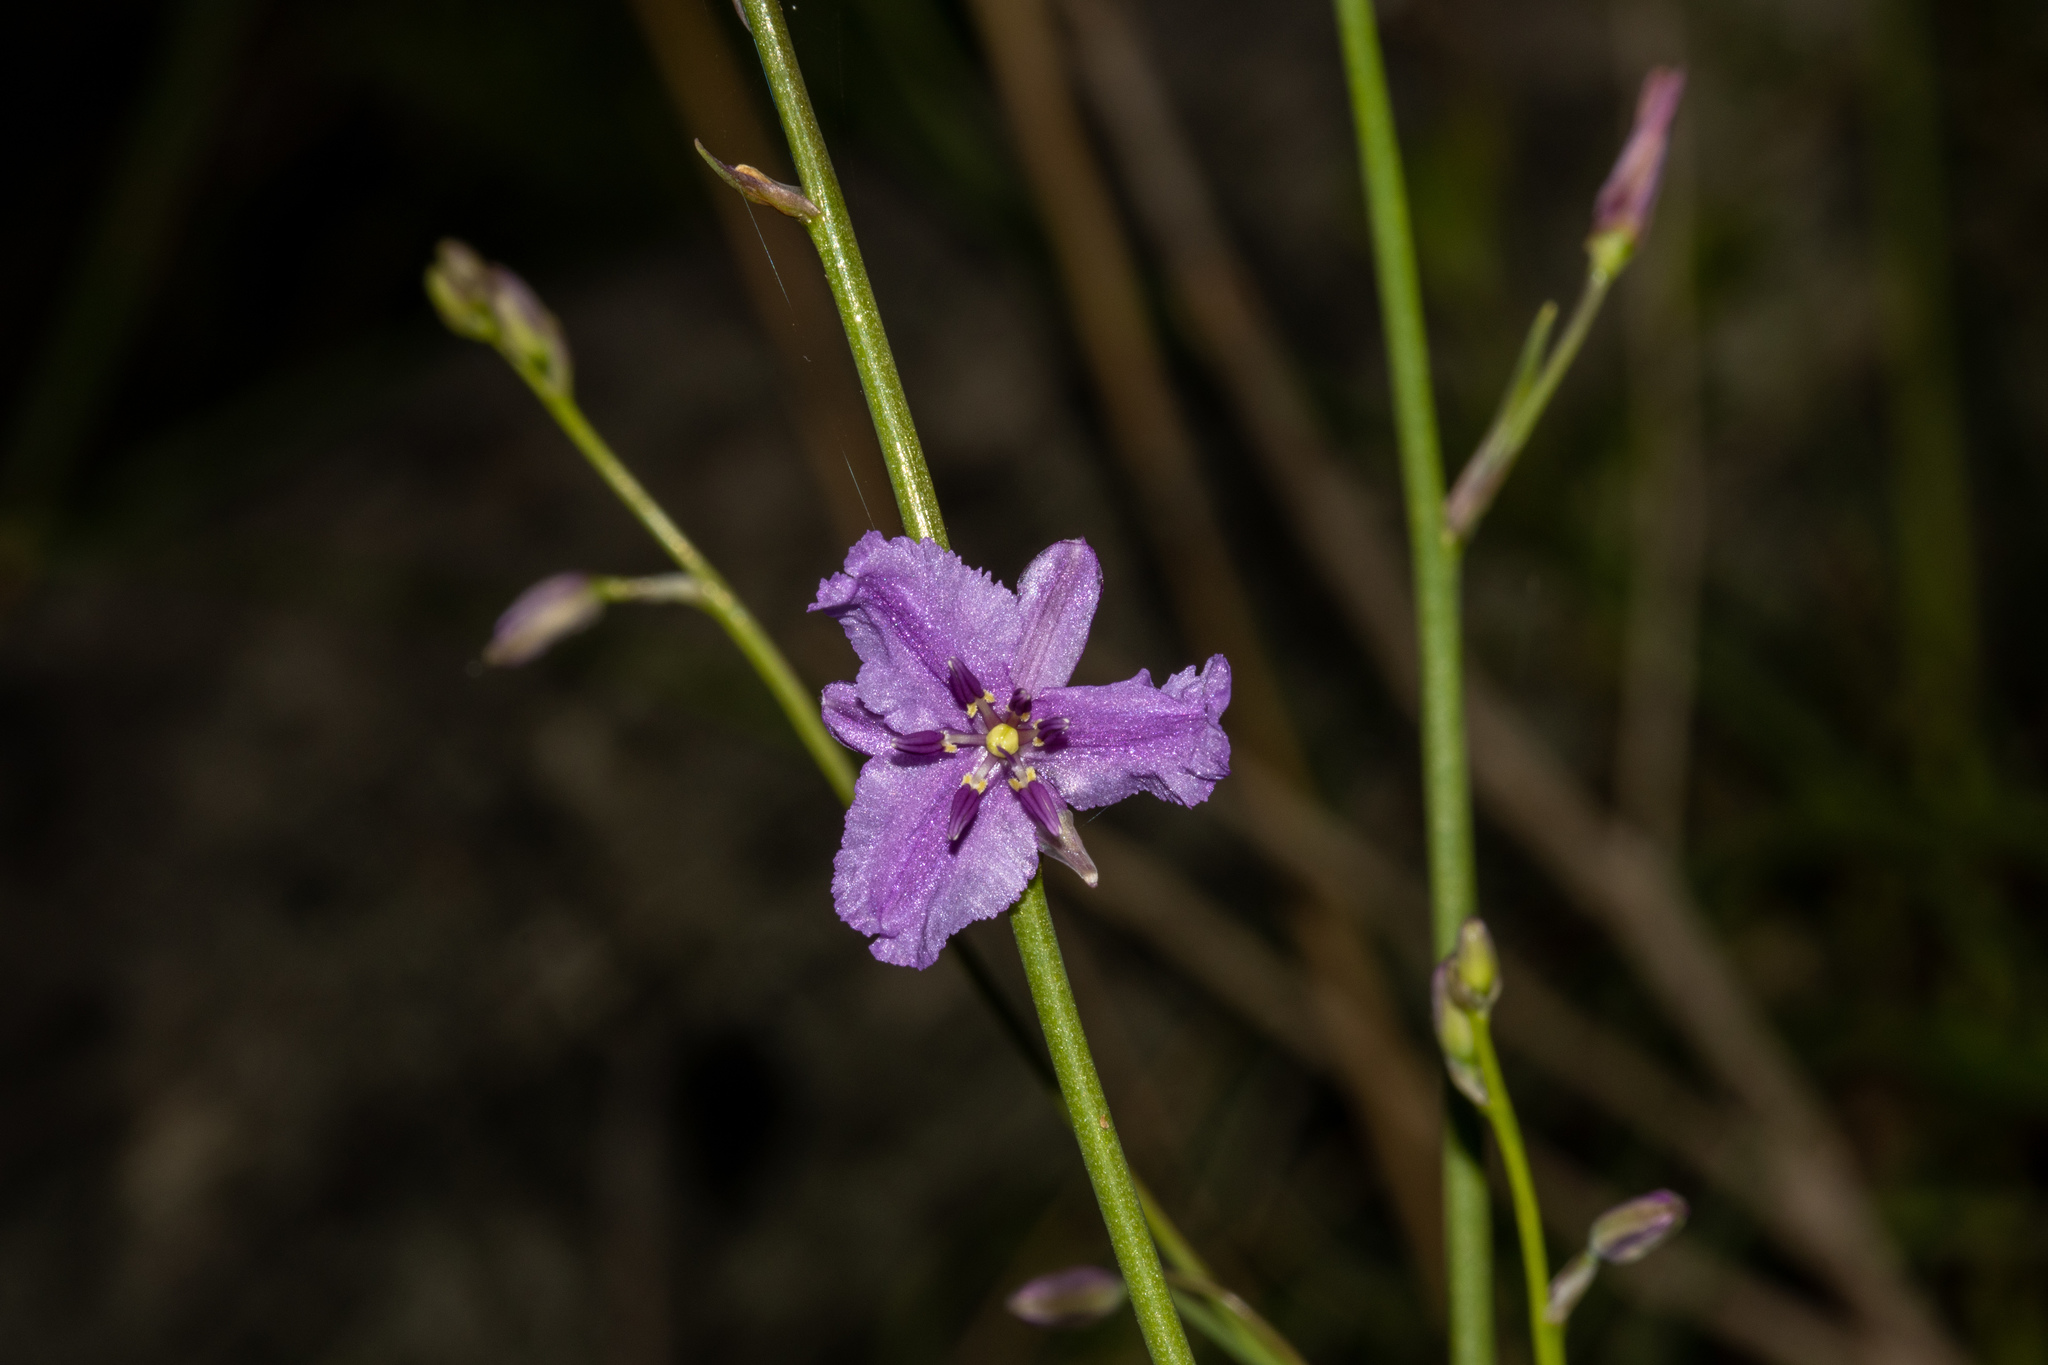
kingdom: Plantae
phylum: Tracheophyta
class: Liliopsida
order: Asparagales
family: Asparagaceae
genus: Arthropodium
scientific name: Arthropodium strictum
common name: Chocolate-lily
